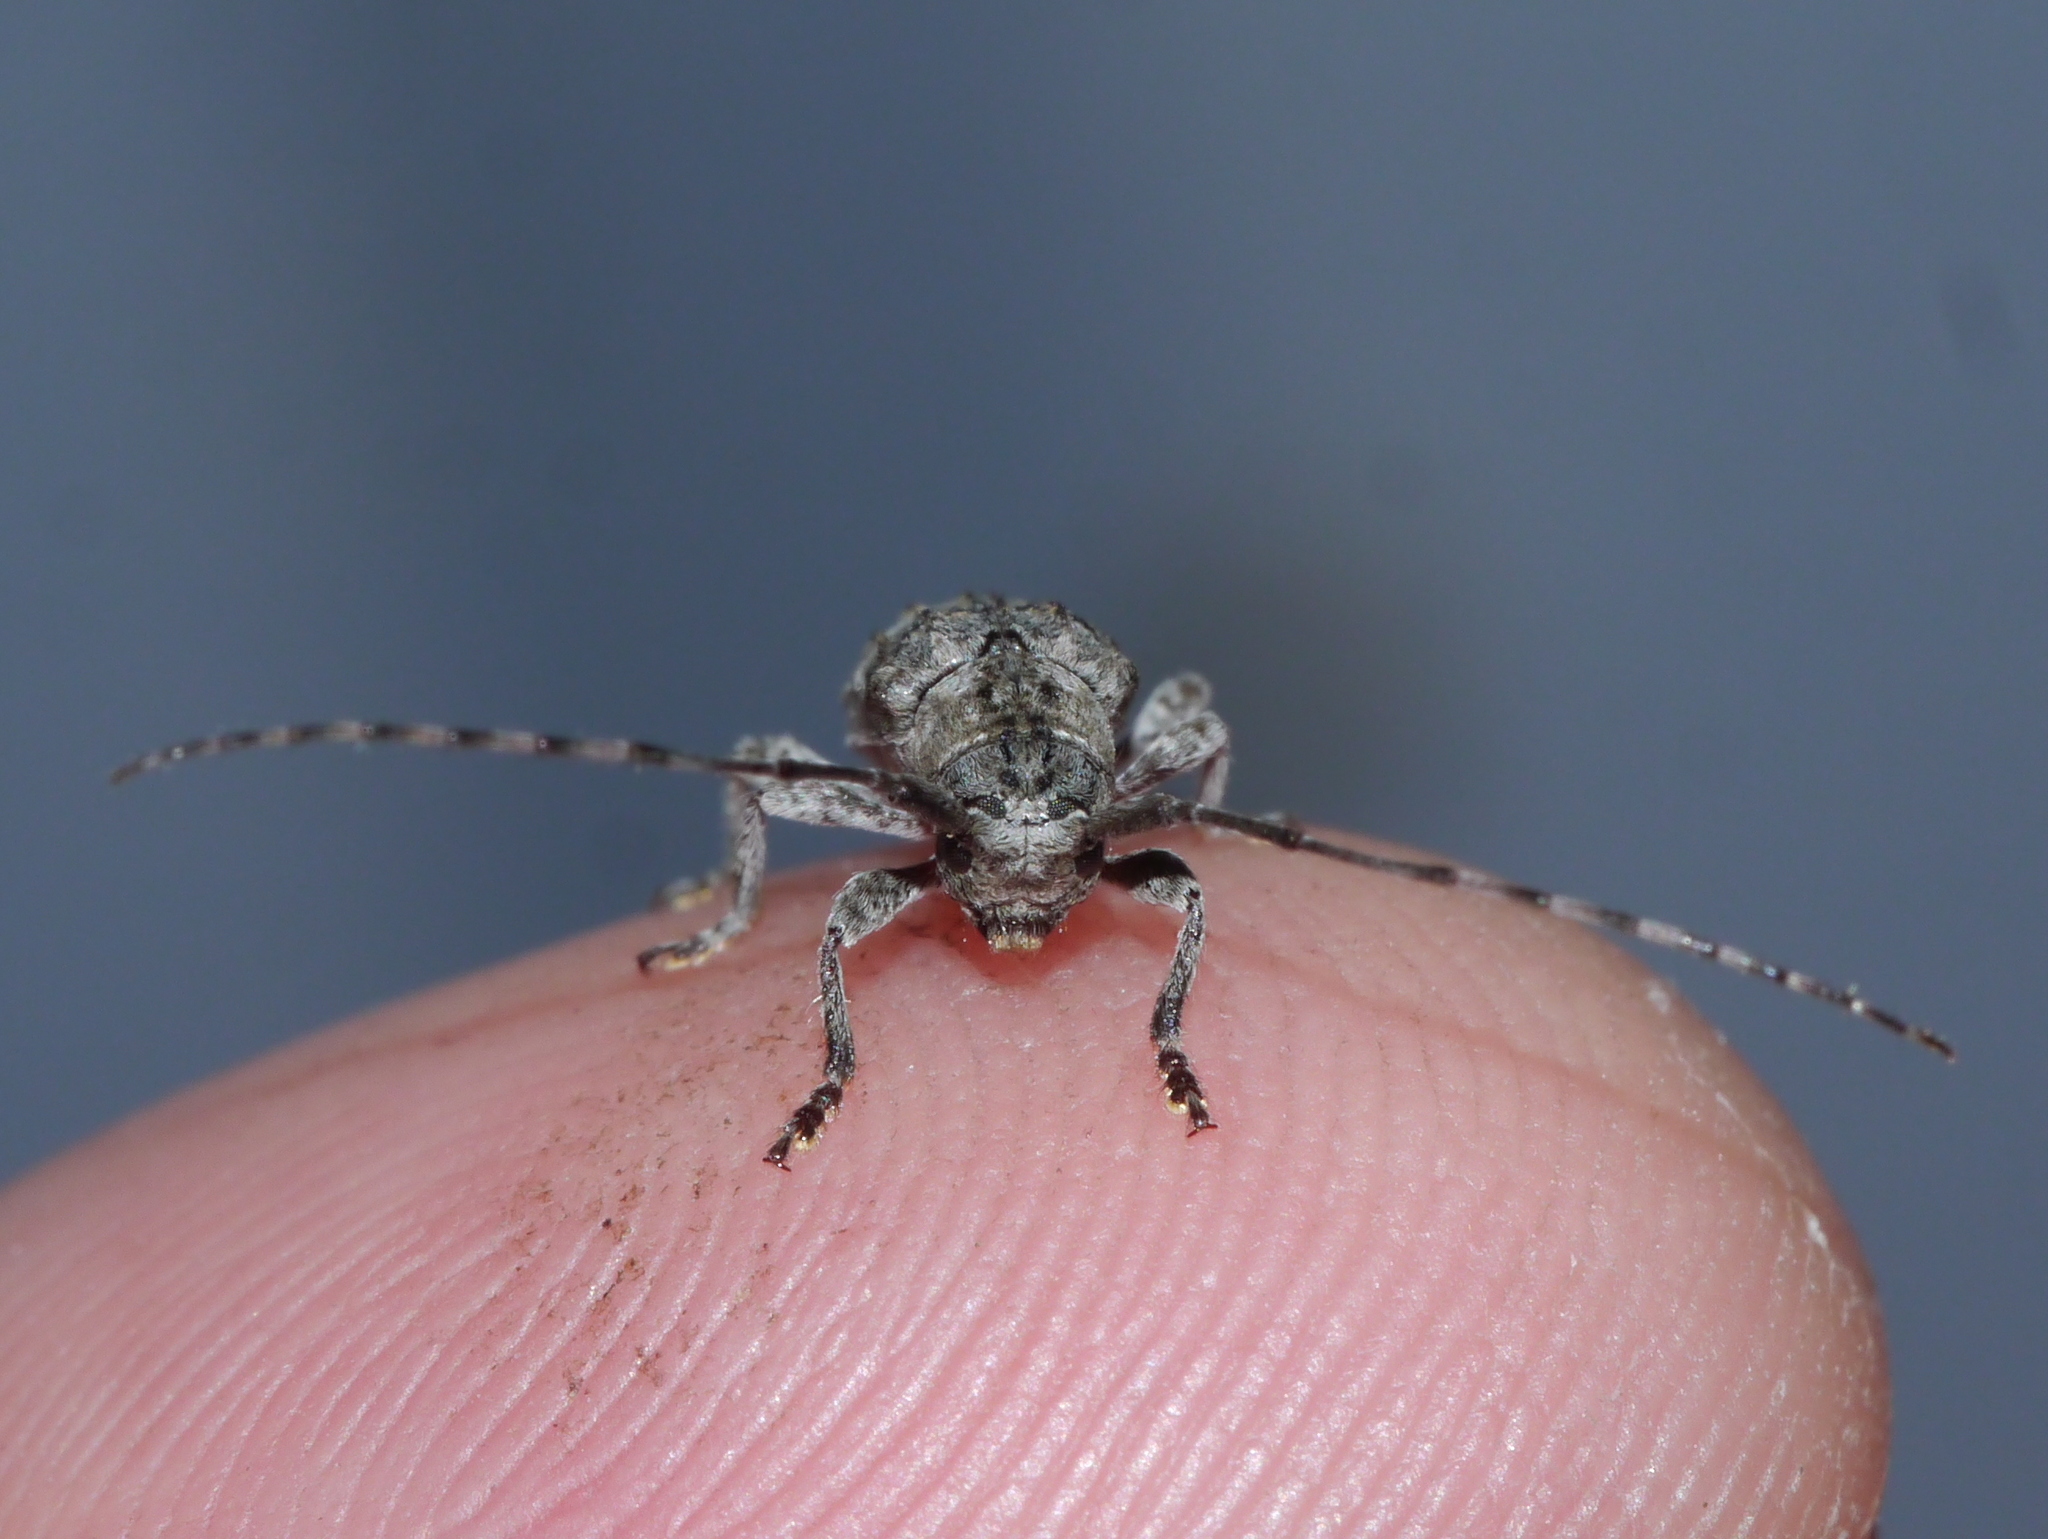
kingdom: Animalia
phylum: Arthropoda
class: Insecta
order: Coleoptera
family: Cerambycidae
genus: Ecyrus
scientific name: Ecyrus dasycerus
